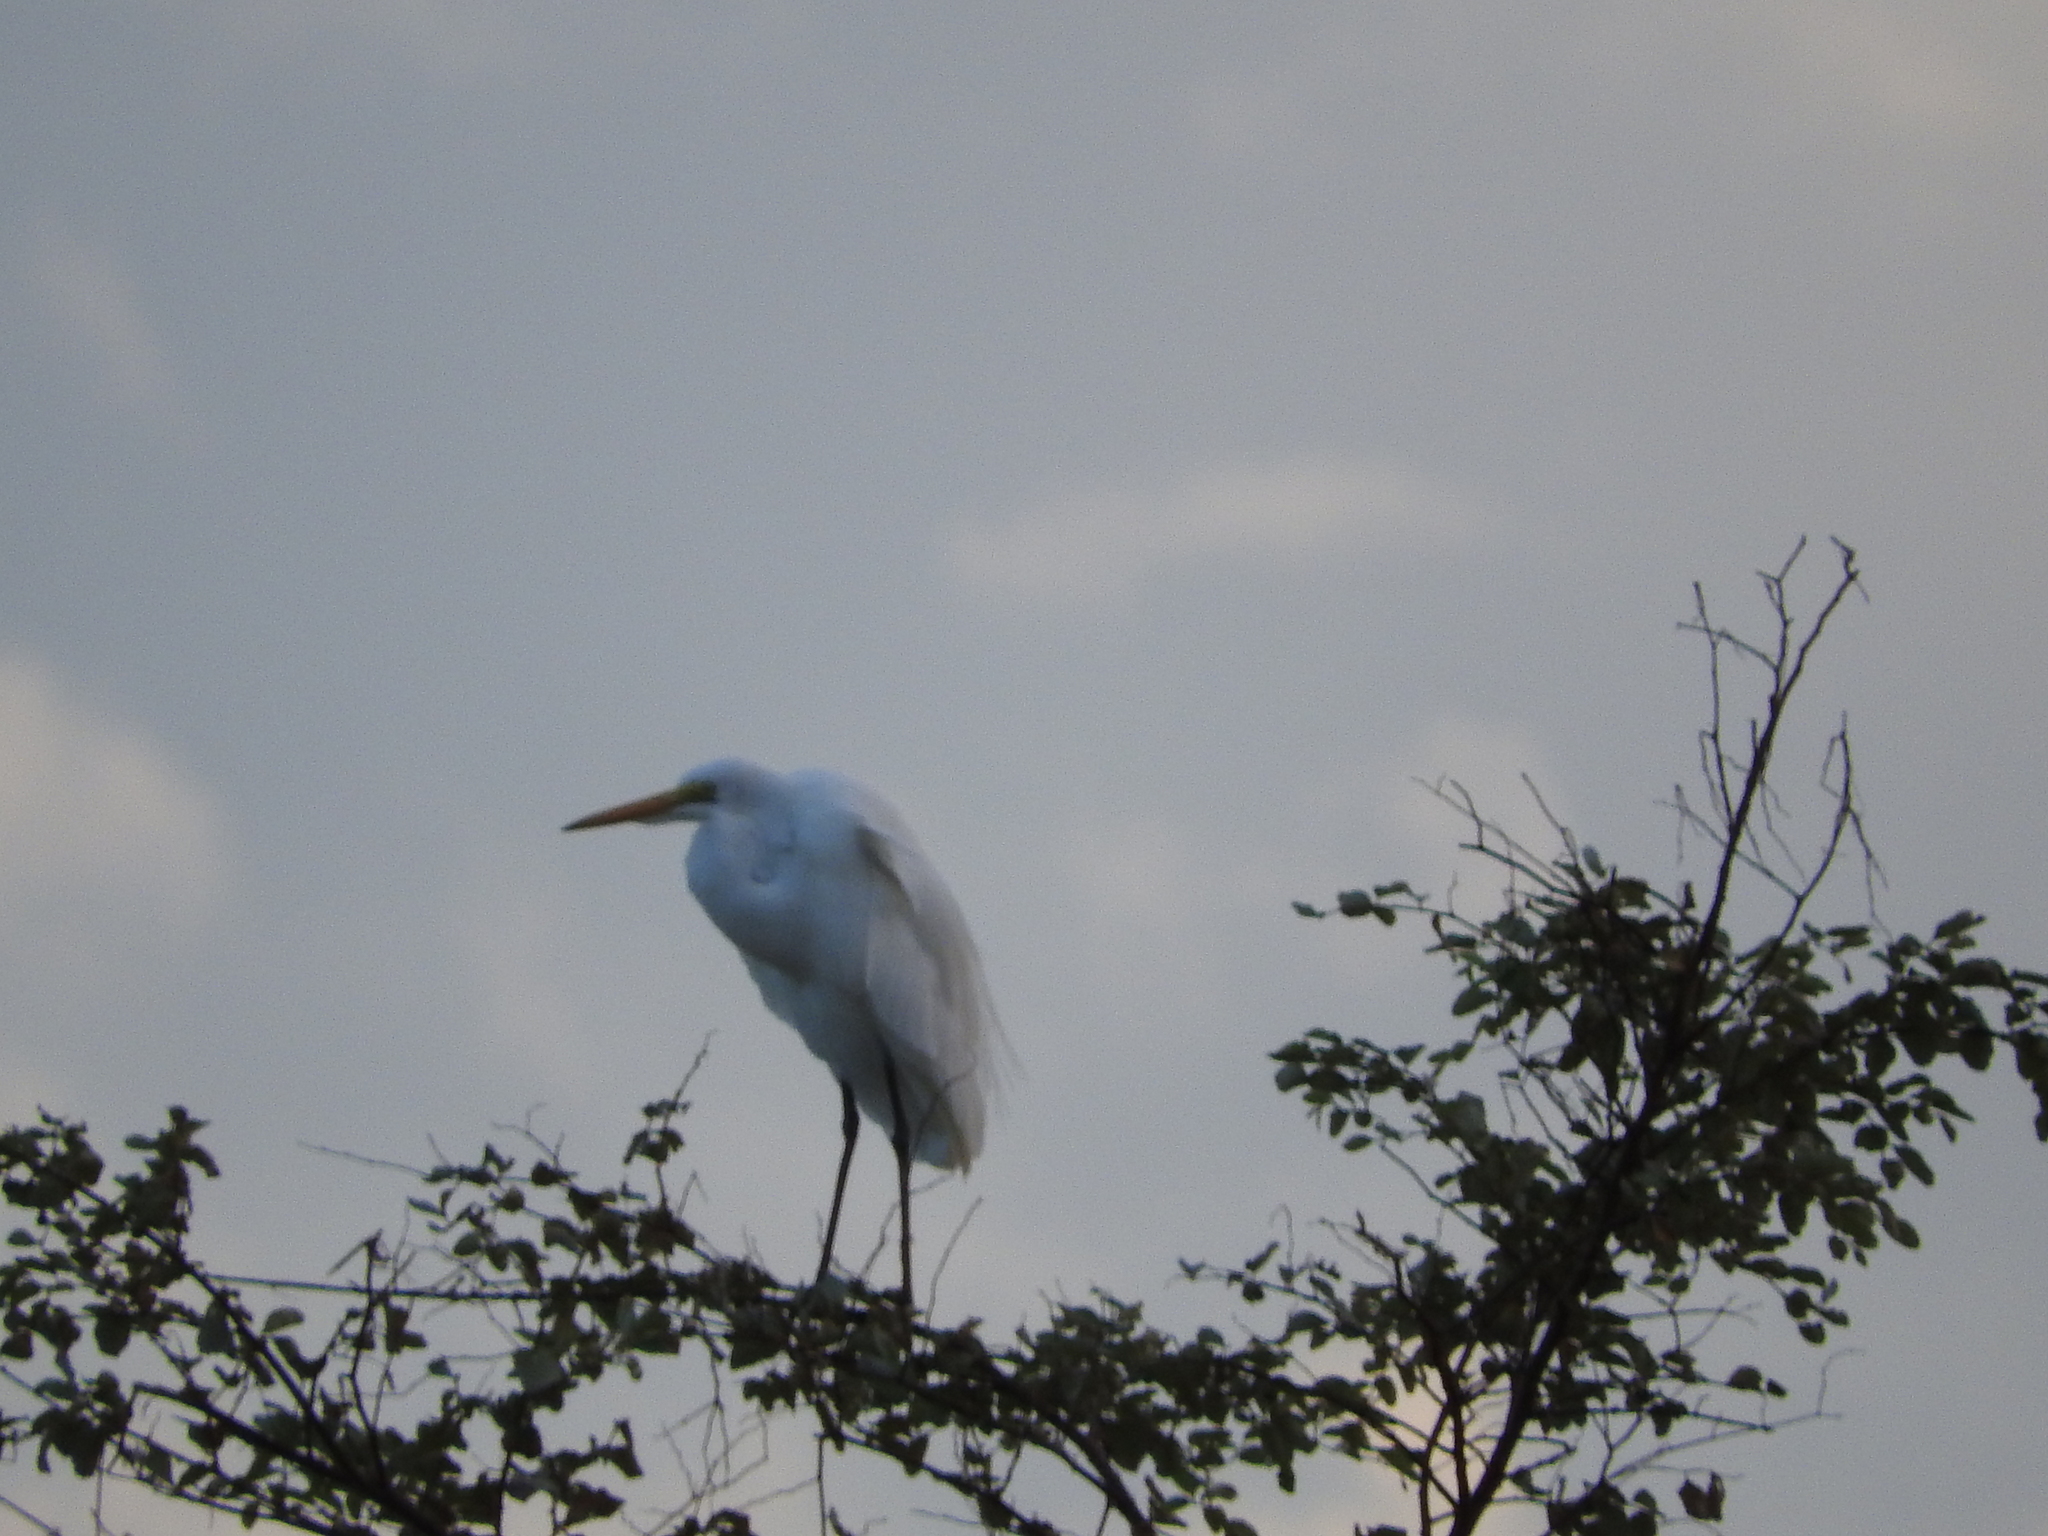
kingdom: Animalia
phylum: Chordata
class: Aves
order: Pelecaniformes
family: Ardeidae
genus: Ardea
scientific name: Ardea alba
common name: Great egret
